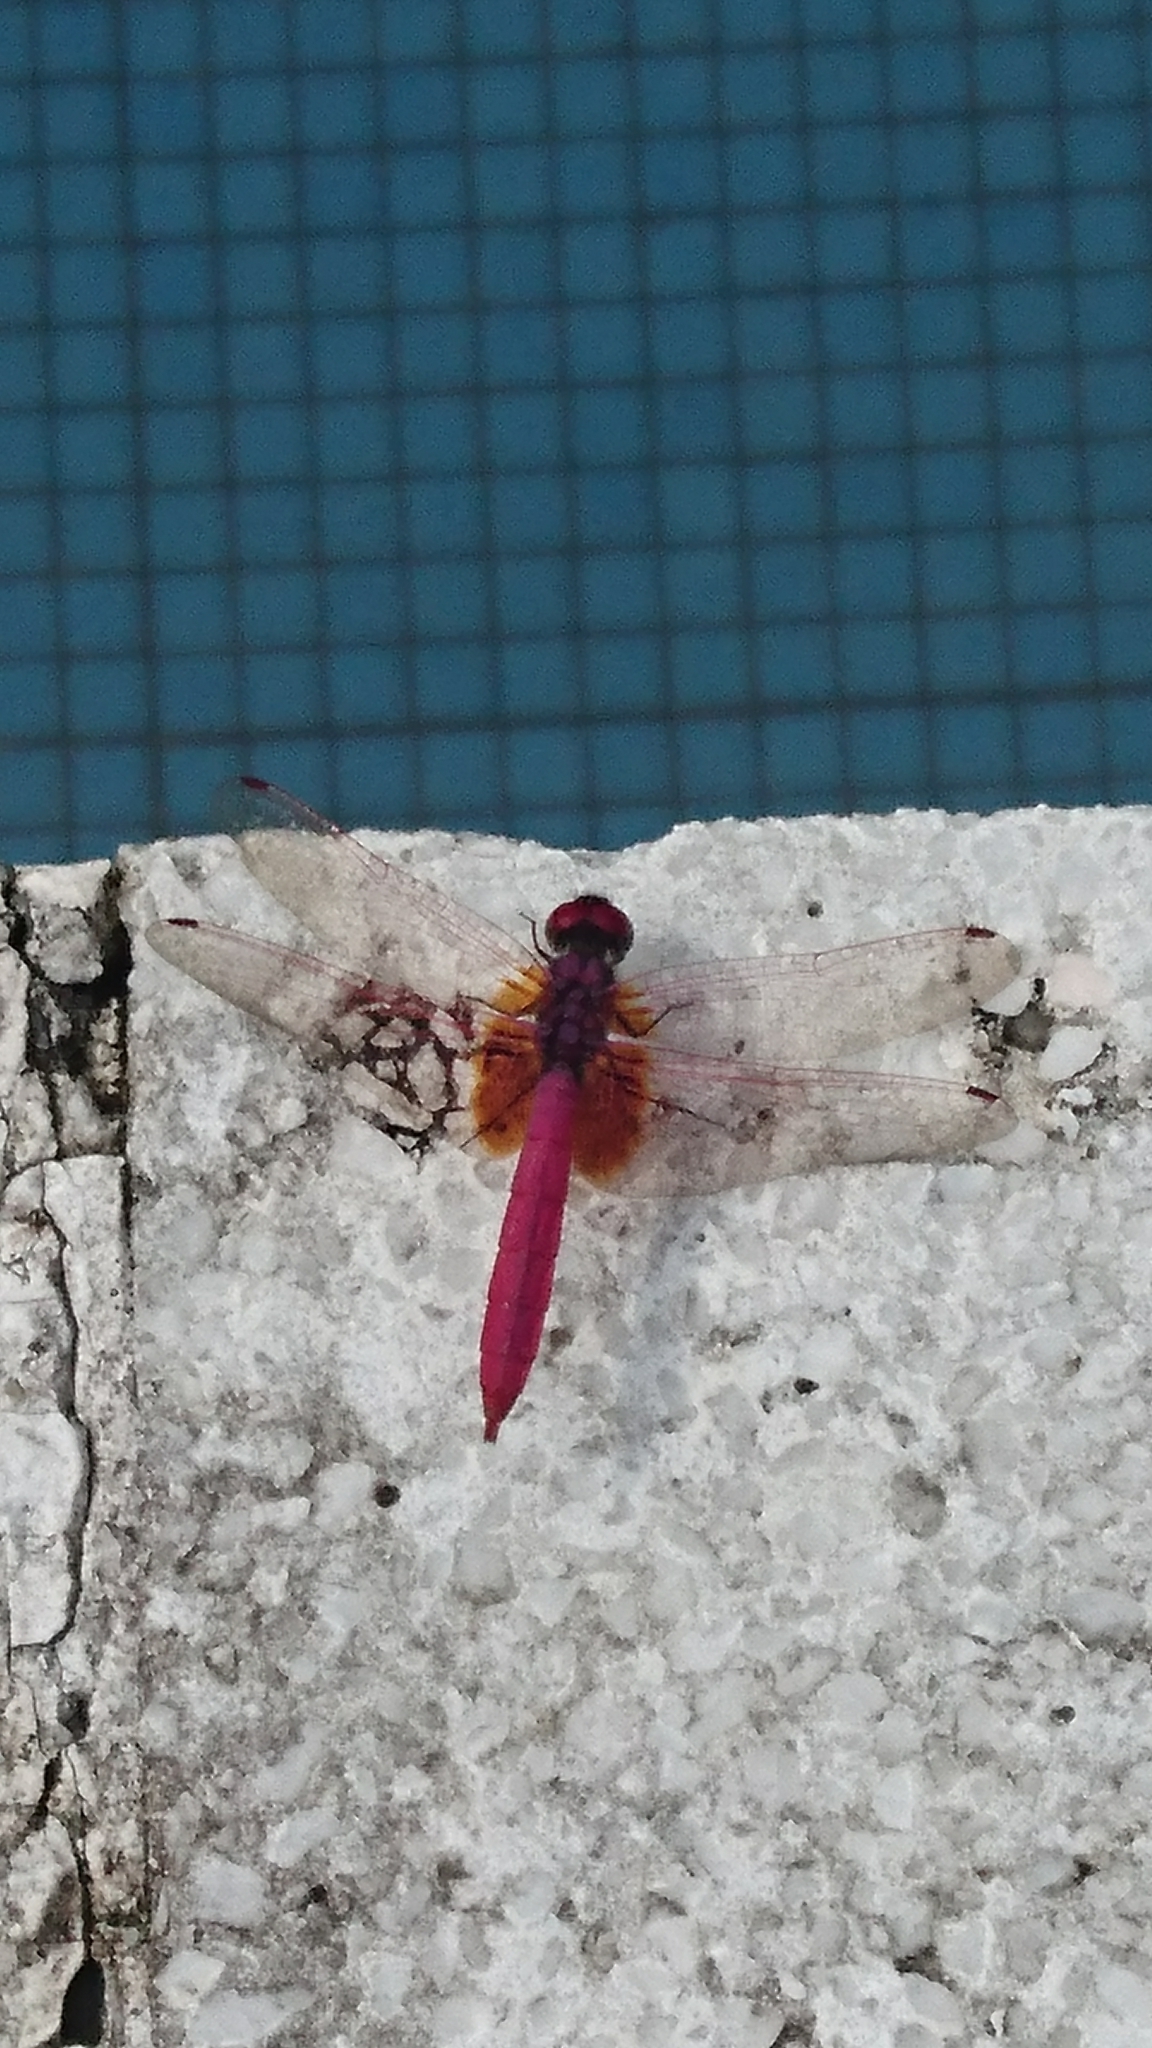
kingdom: Animalia
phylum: Arthropoda
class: Insecta
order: Odonata
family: Libellulidae
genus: Trithemis
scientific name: Trithemis aurora
